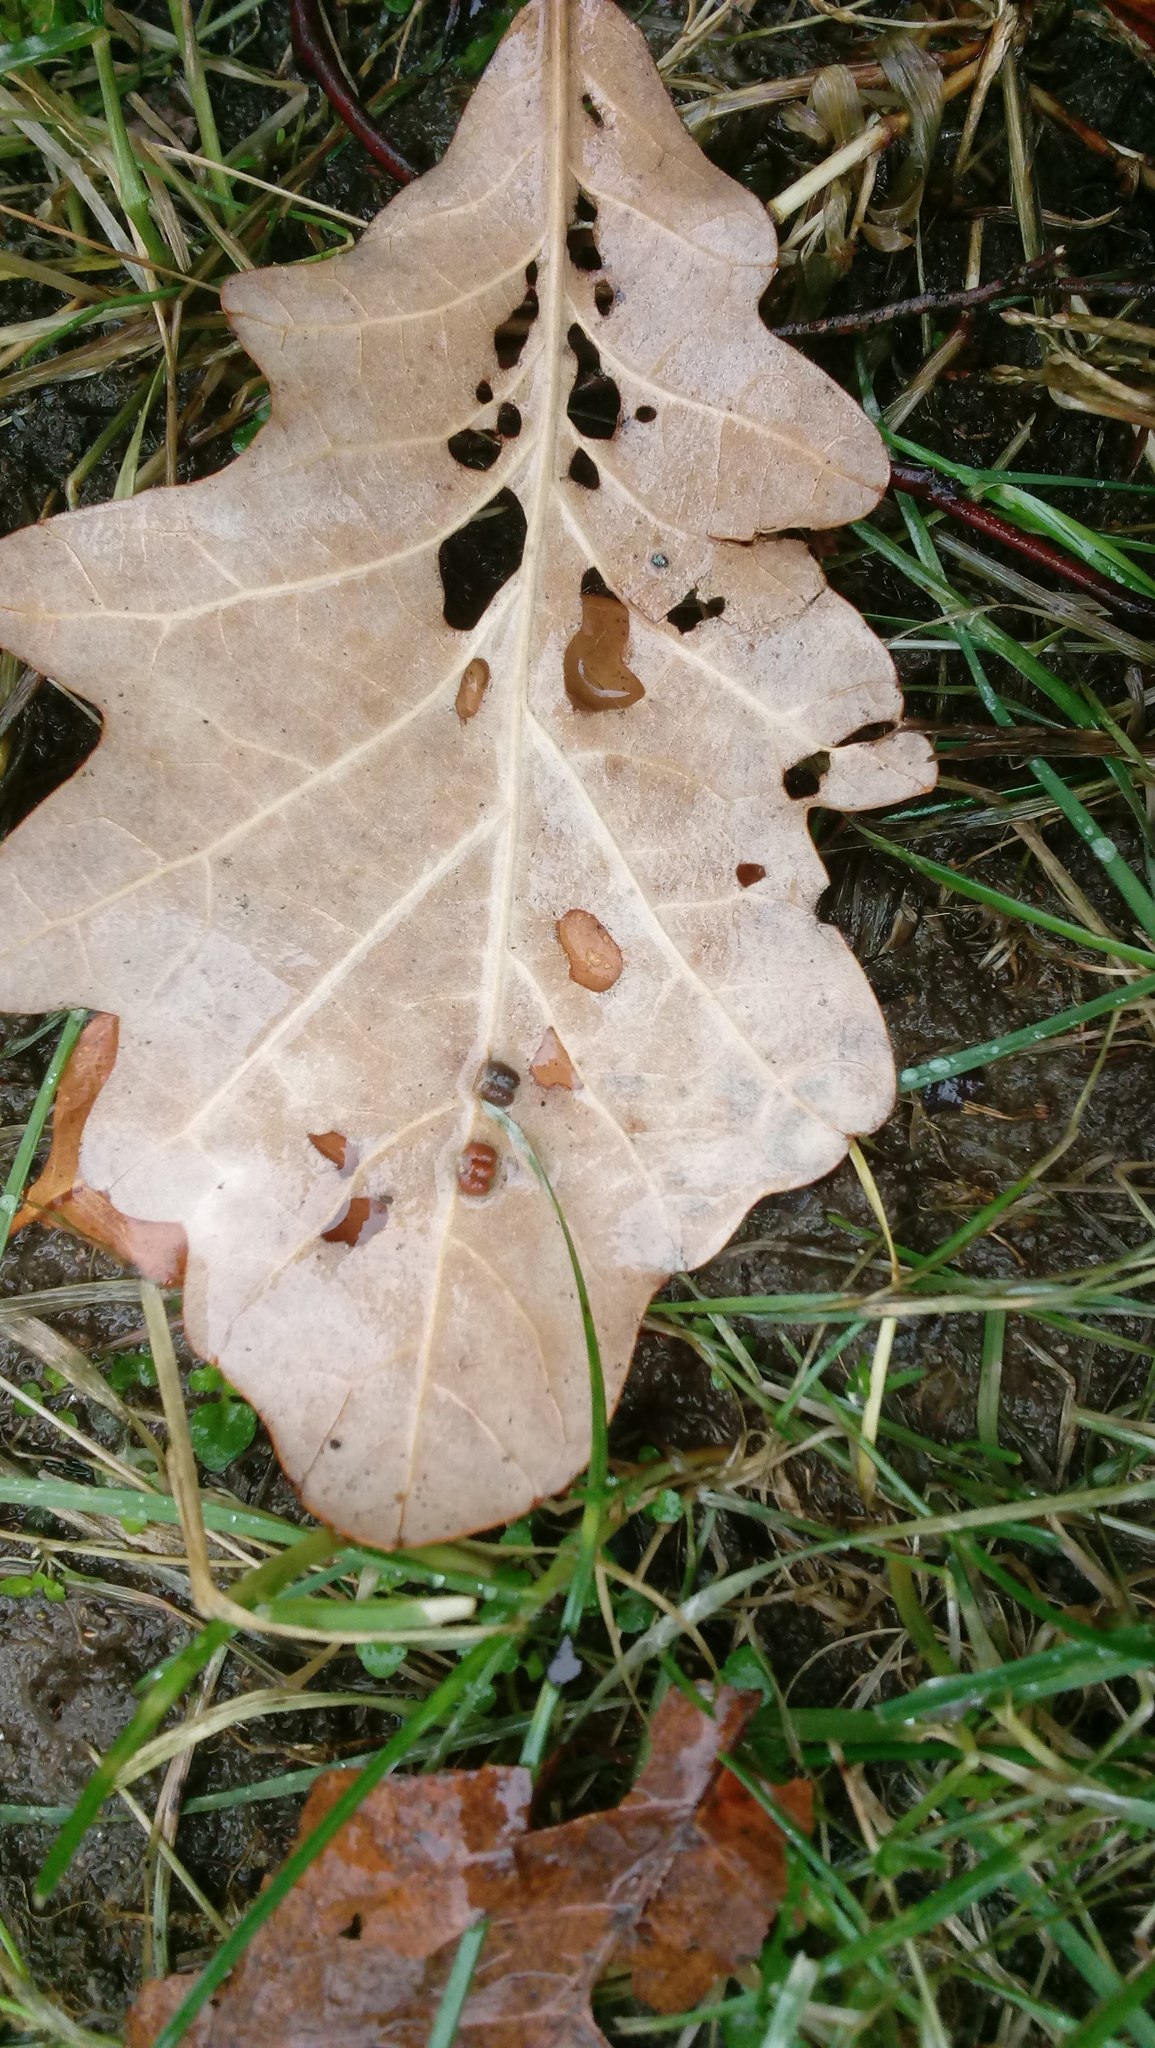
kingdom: Animalia
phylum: Arthropoda
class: Insecta
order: Hymenoptera
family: Cynipidae
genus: Andricus
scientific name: Andricus Druon ignotum
